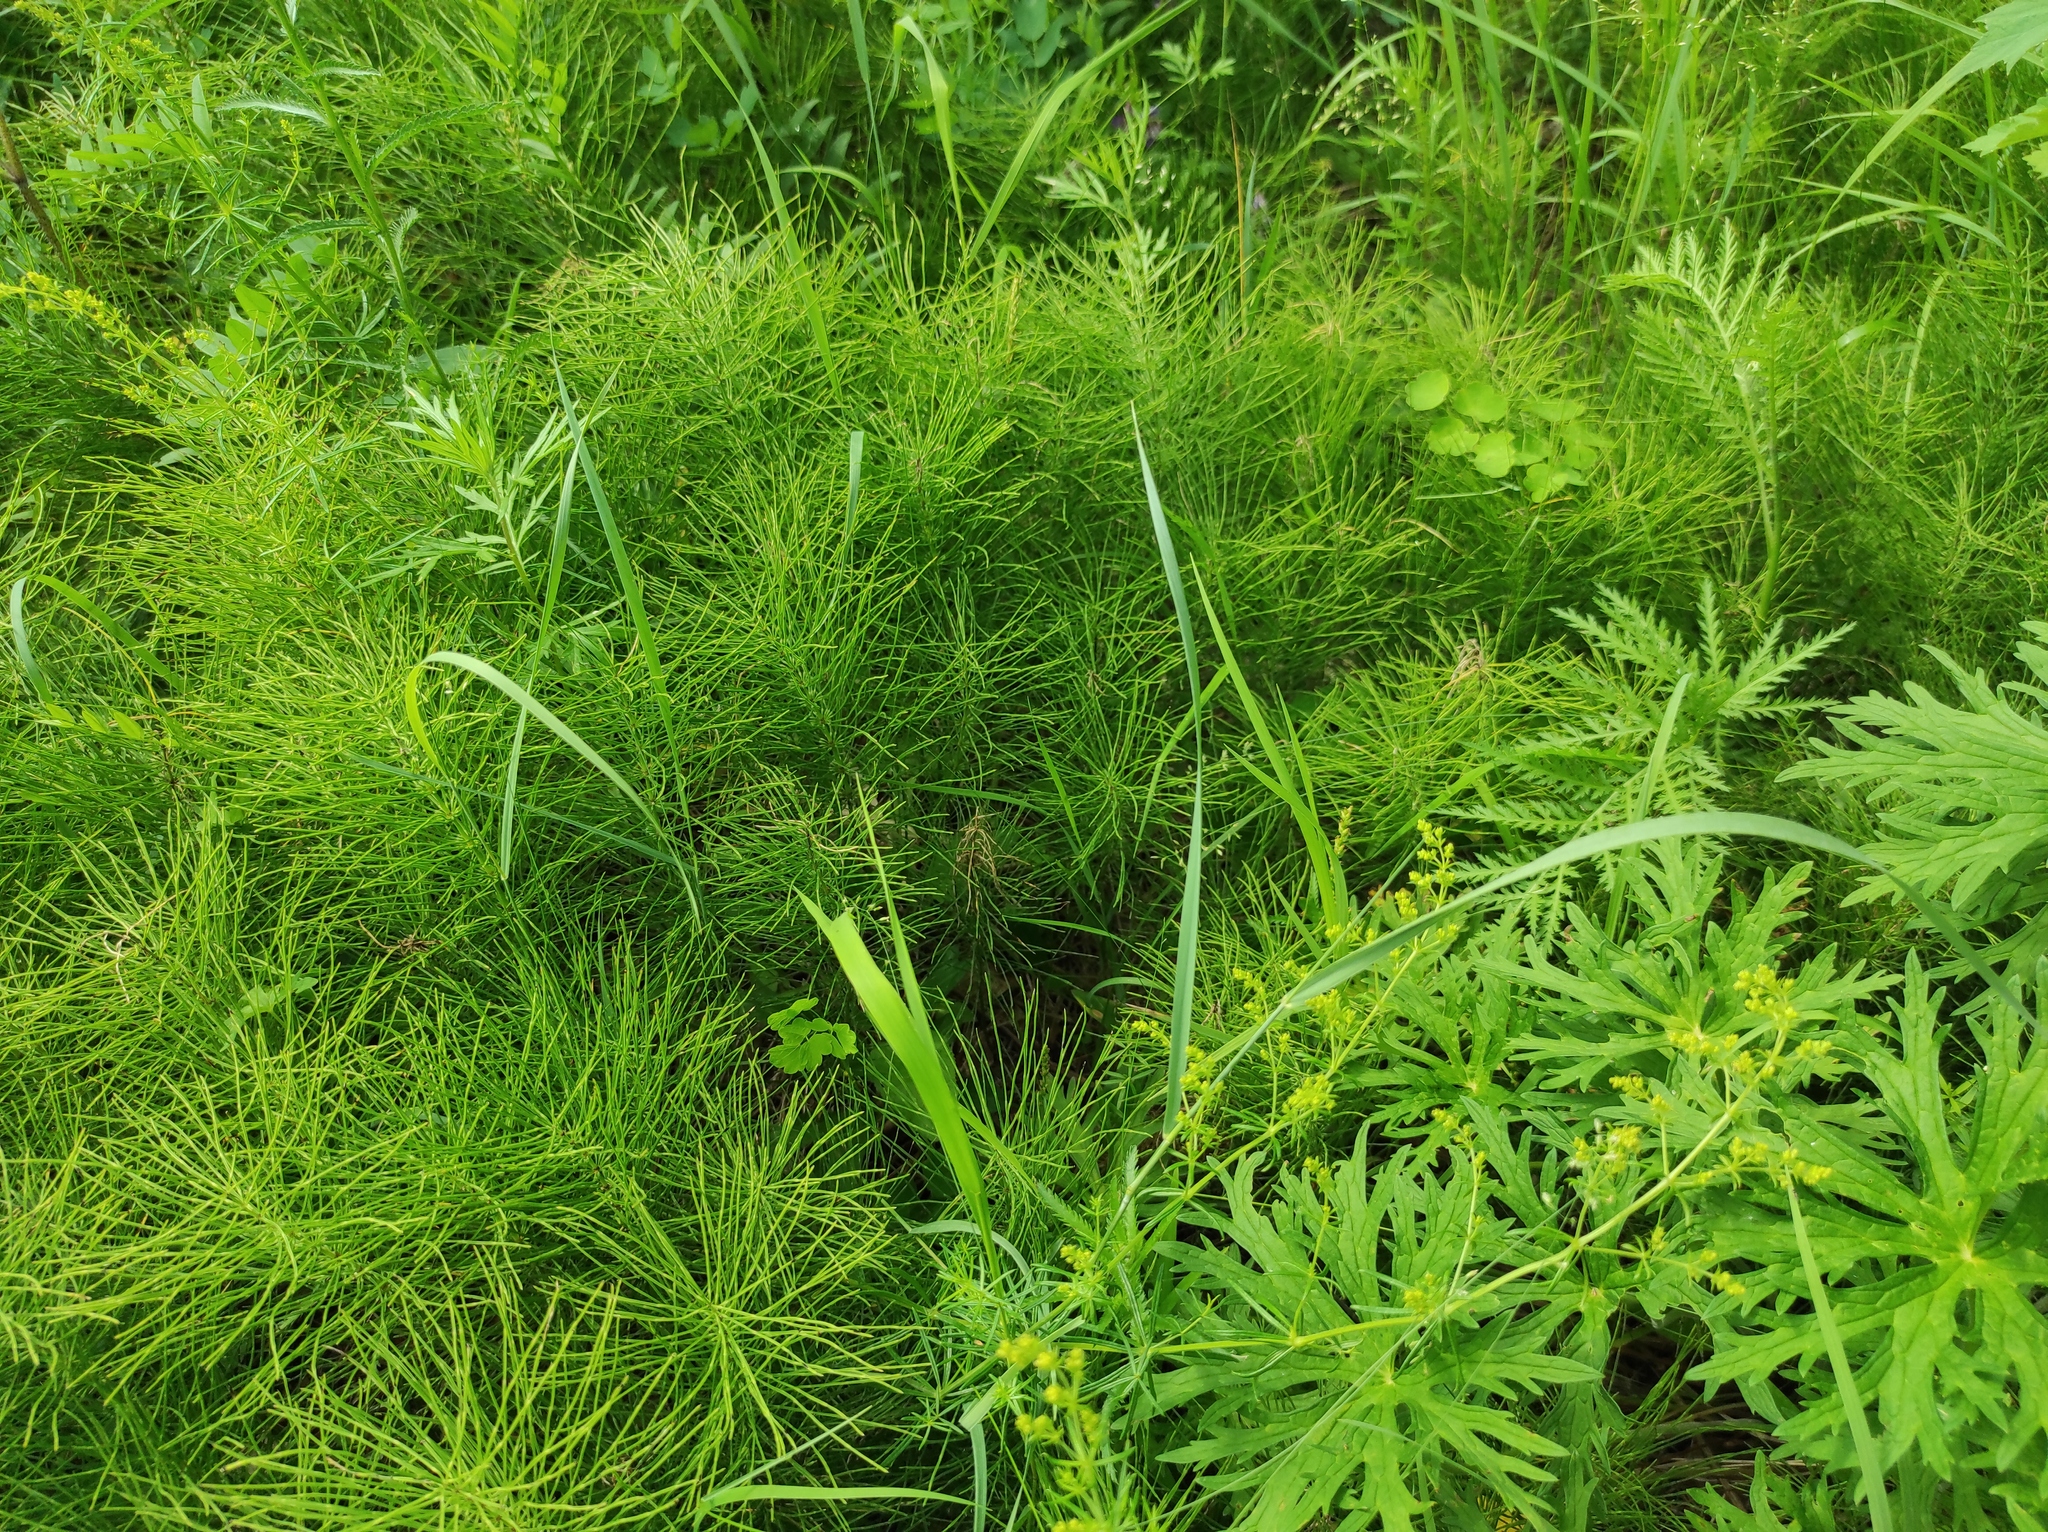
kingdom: Plantae
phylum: Tracheophyta
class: Magnoliopsida
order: Gentianales
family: Rubiaceae
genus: Galium
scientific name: Galium verum
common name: Lady's bedstraw
